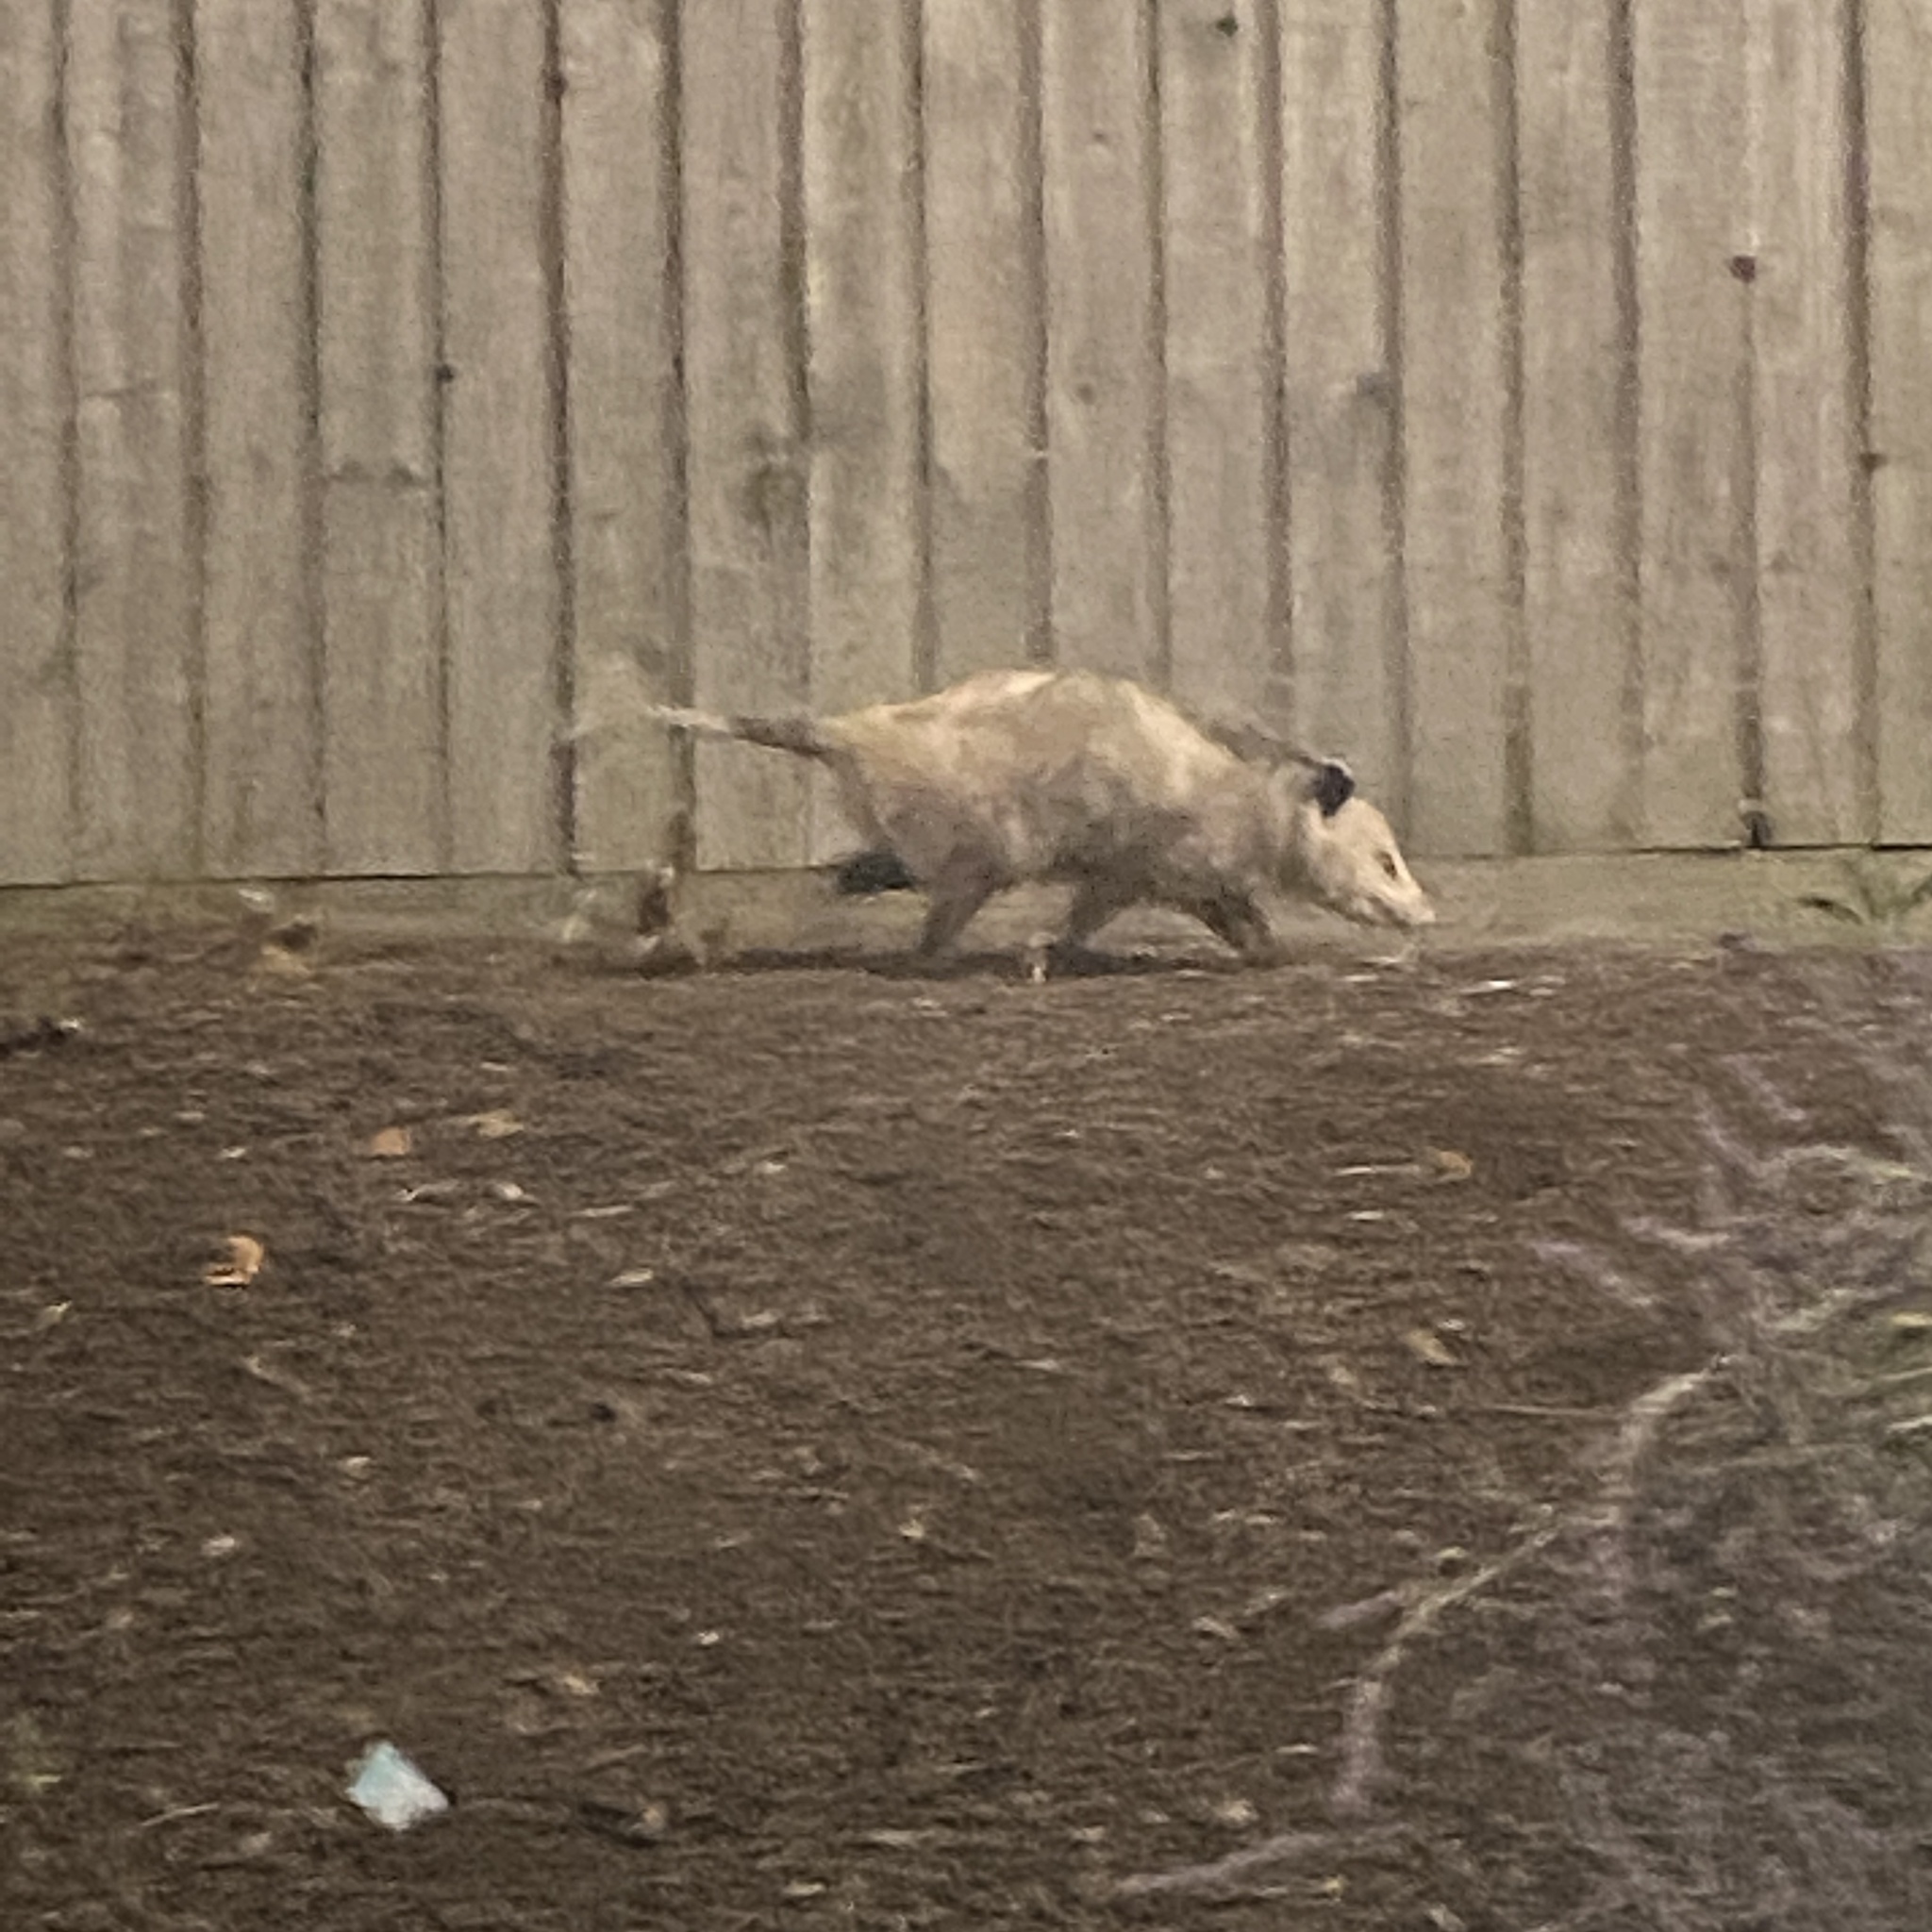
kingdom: Animalia
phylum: Chordata
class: Mammalia
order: Didelphimorphia
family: Didelphidae
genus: Didelphis
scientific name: Didelphis virginiana
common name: Virginia opossum
